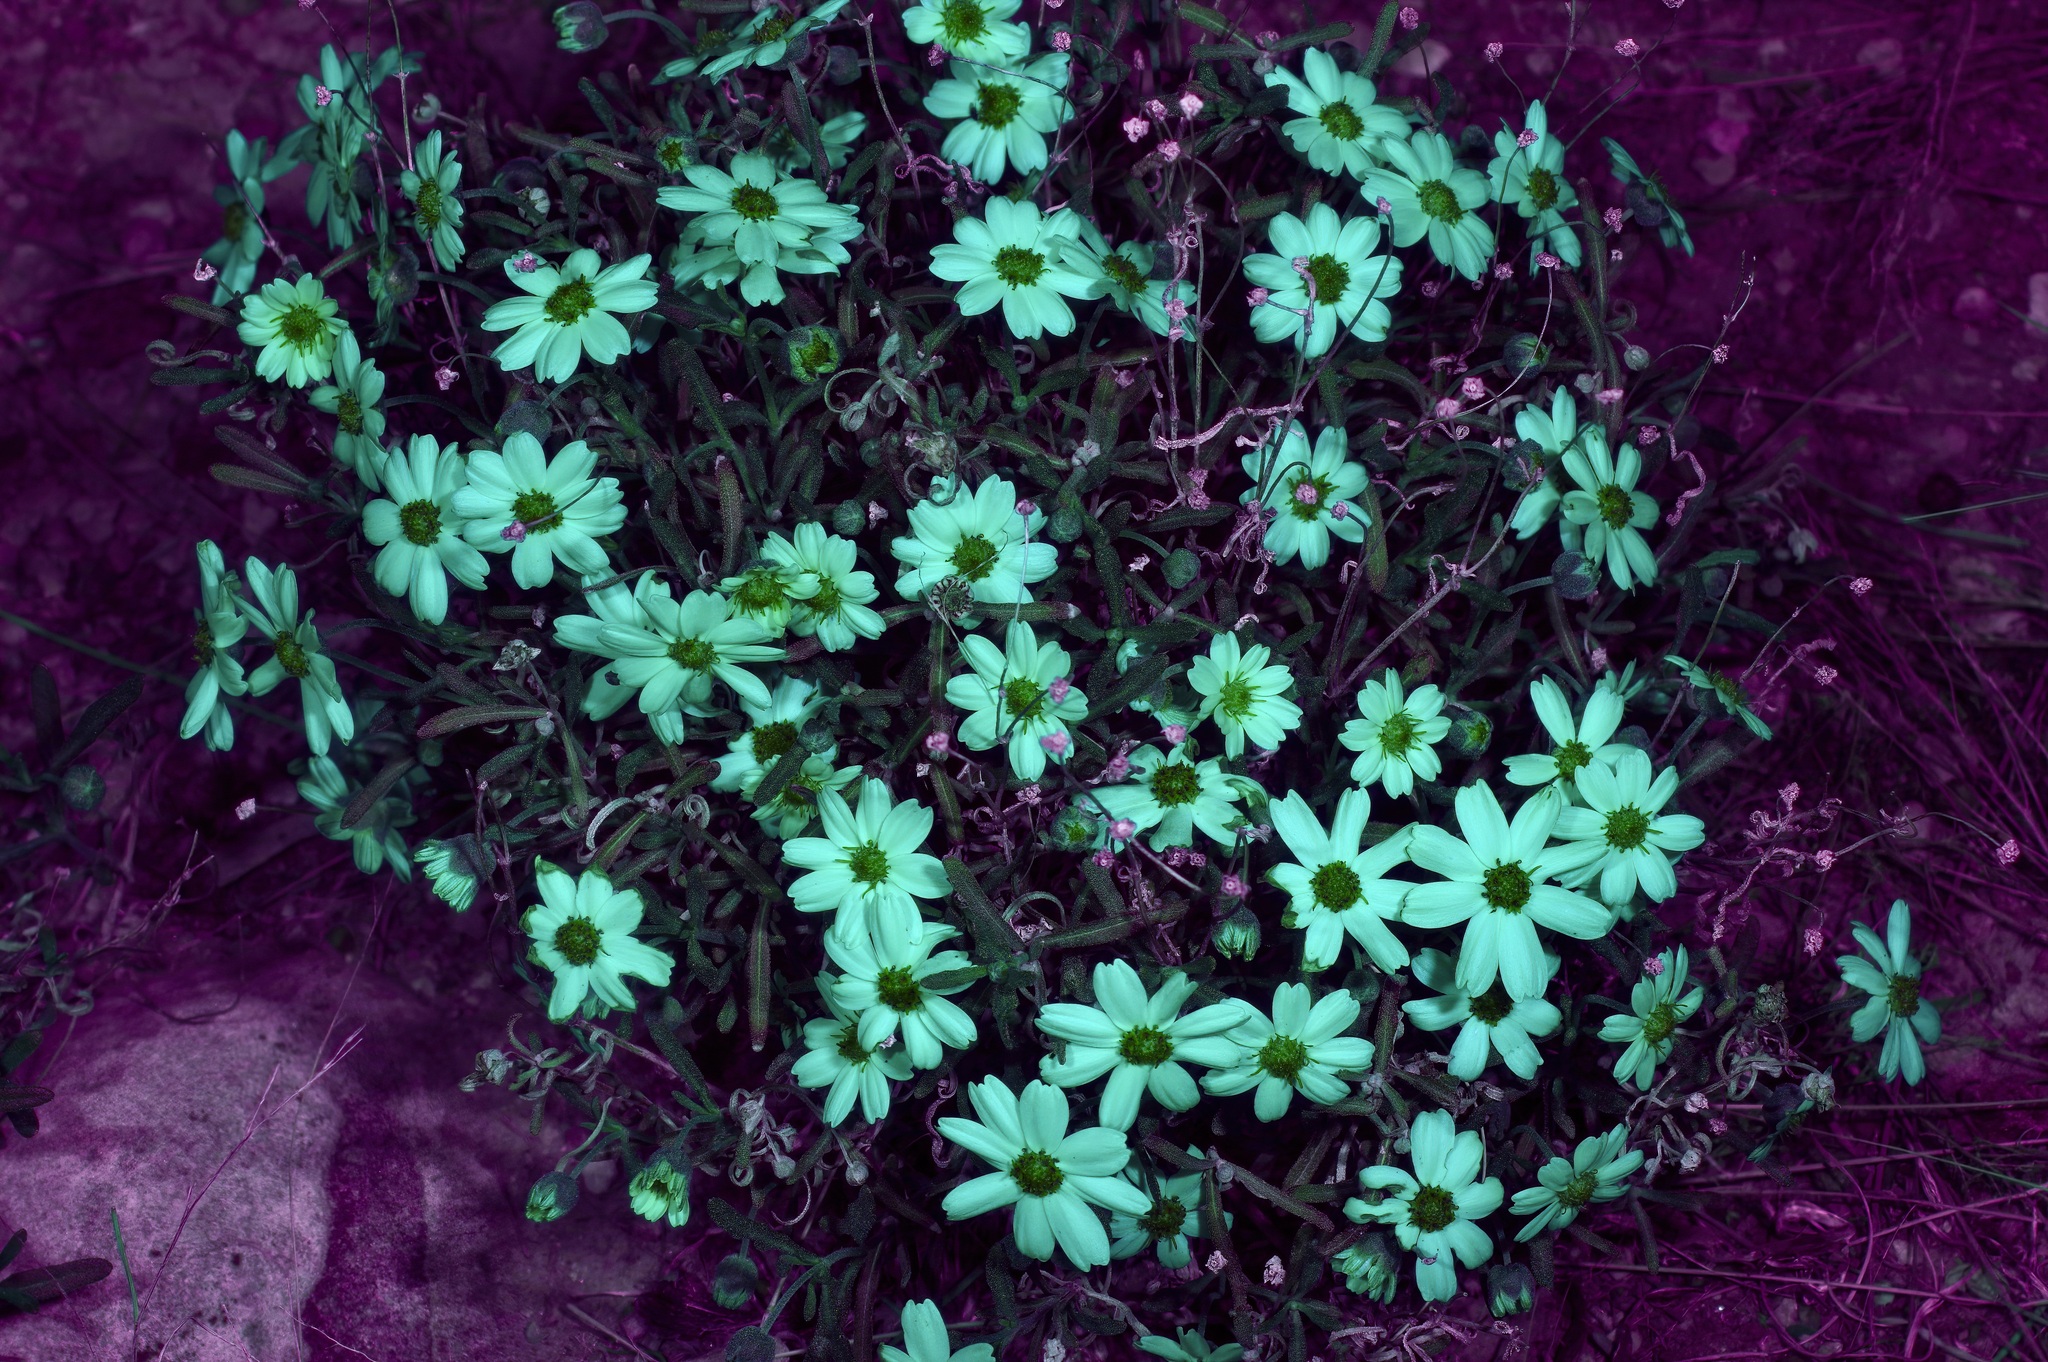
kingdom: Plantae
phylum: Tracheophyta
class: Magnoliopsida
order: Asterales
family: Asteraceae
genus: Melampodium
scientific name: Melampodium leucanthum
